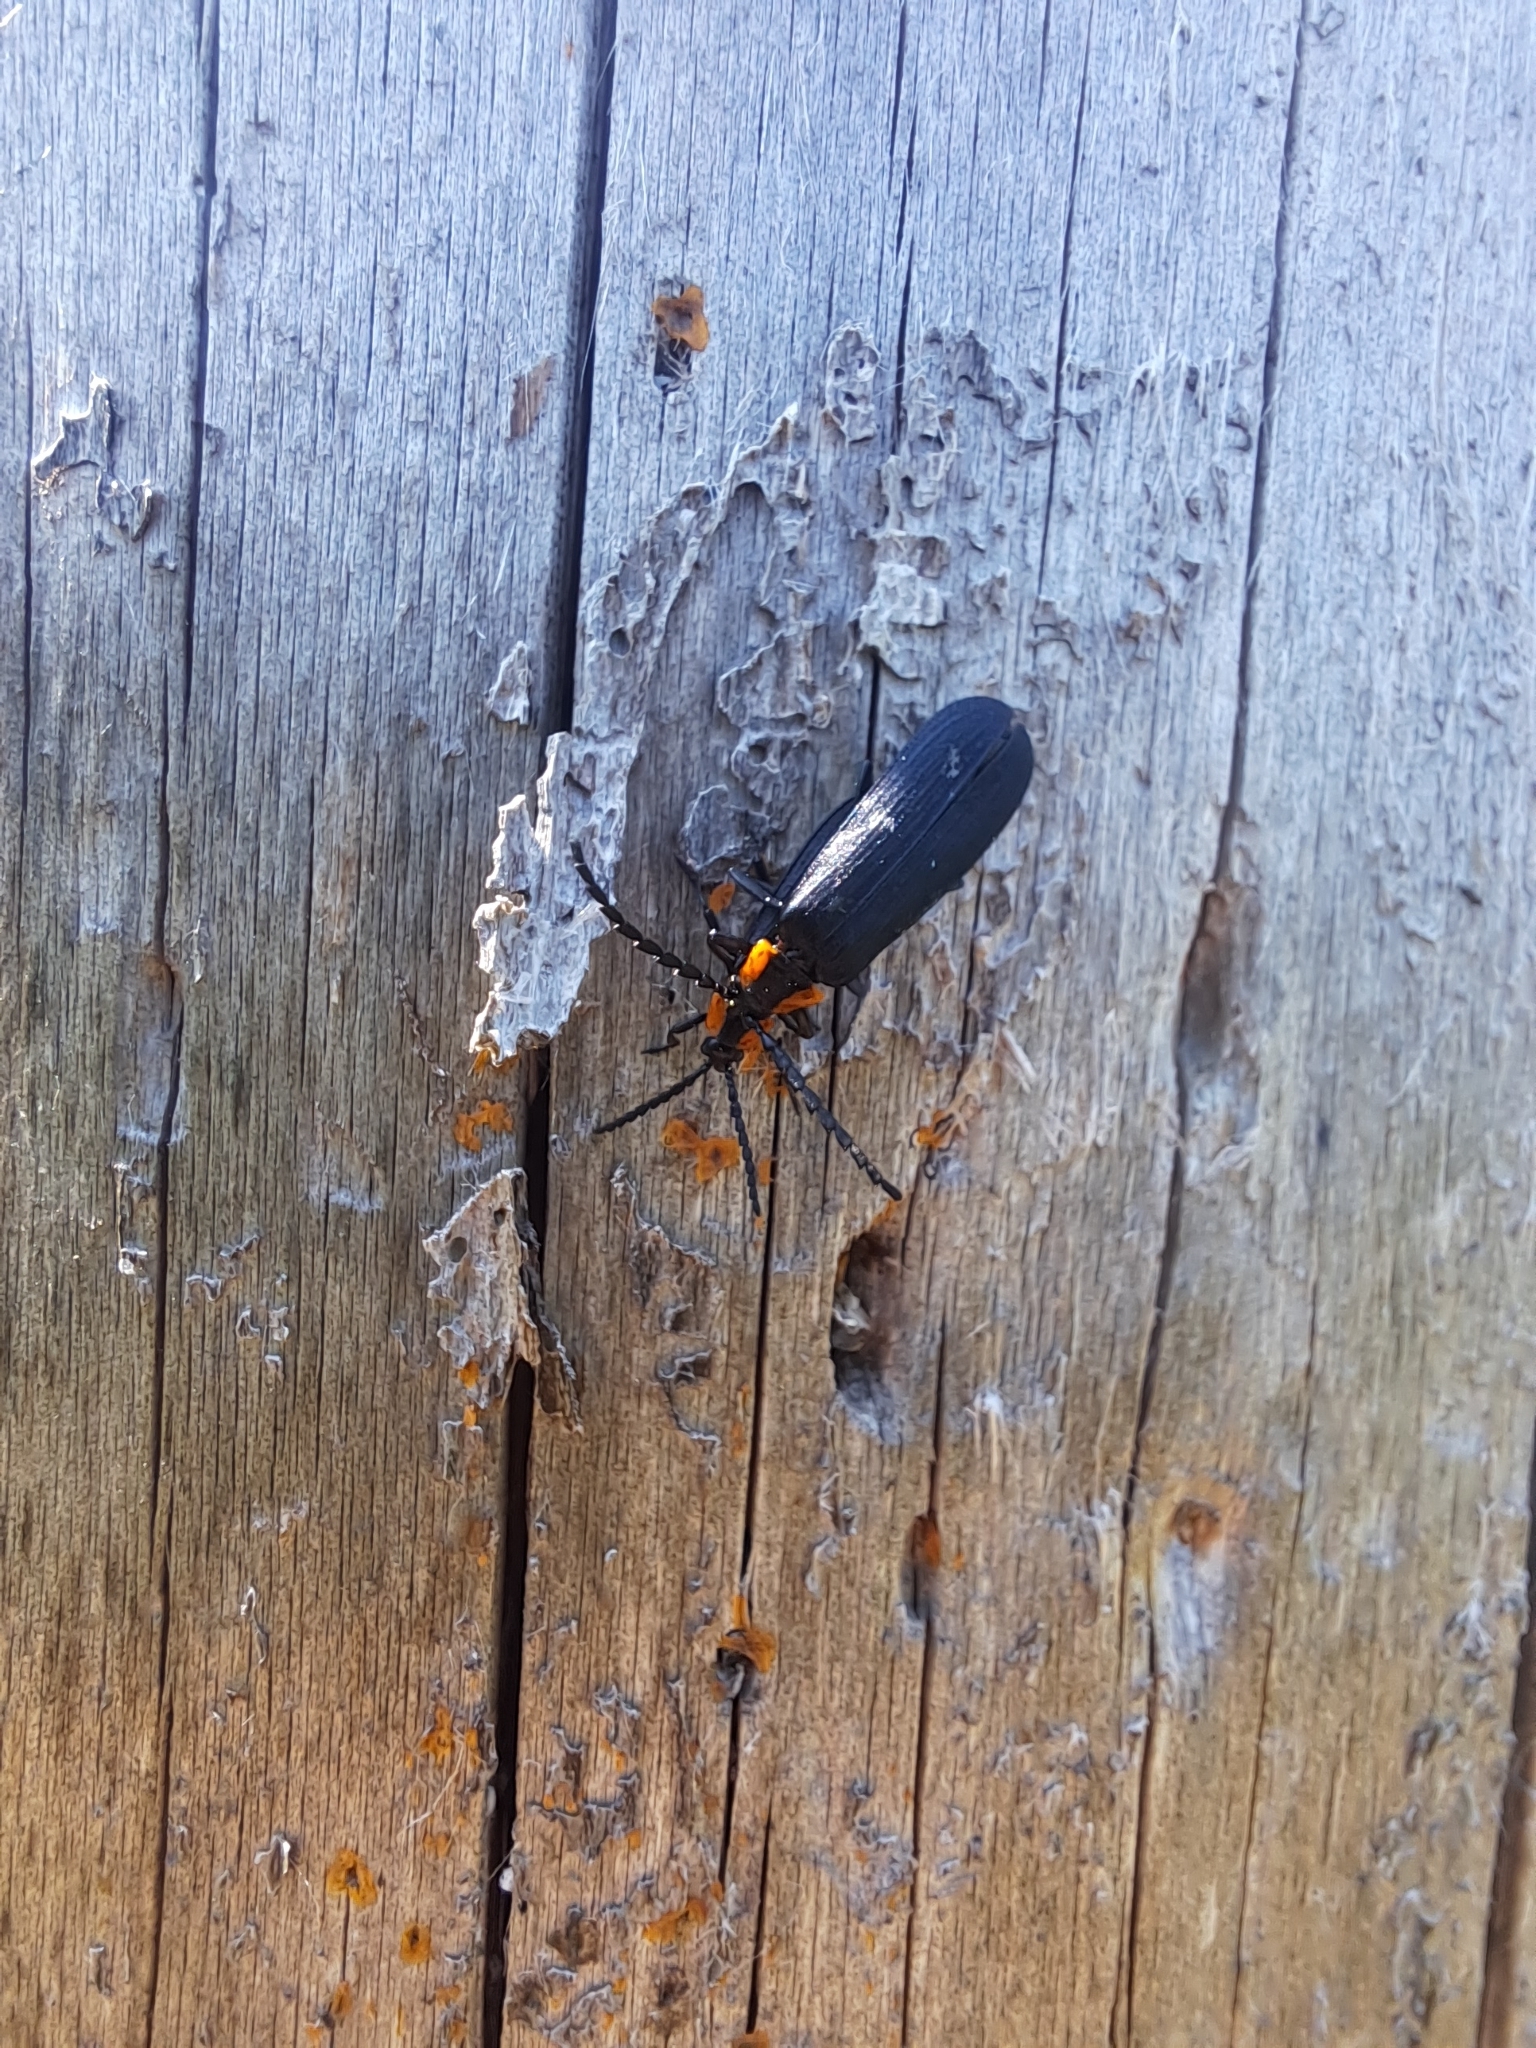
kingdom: Animalia
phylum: Arthropoda
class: Insecta
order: Coleoptera
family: Lycidae
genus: Calochromus
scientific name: Calochromus perfacetus
